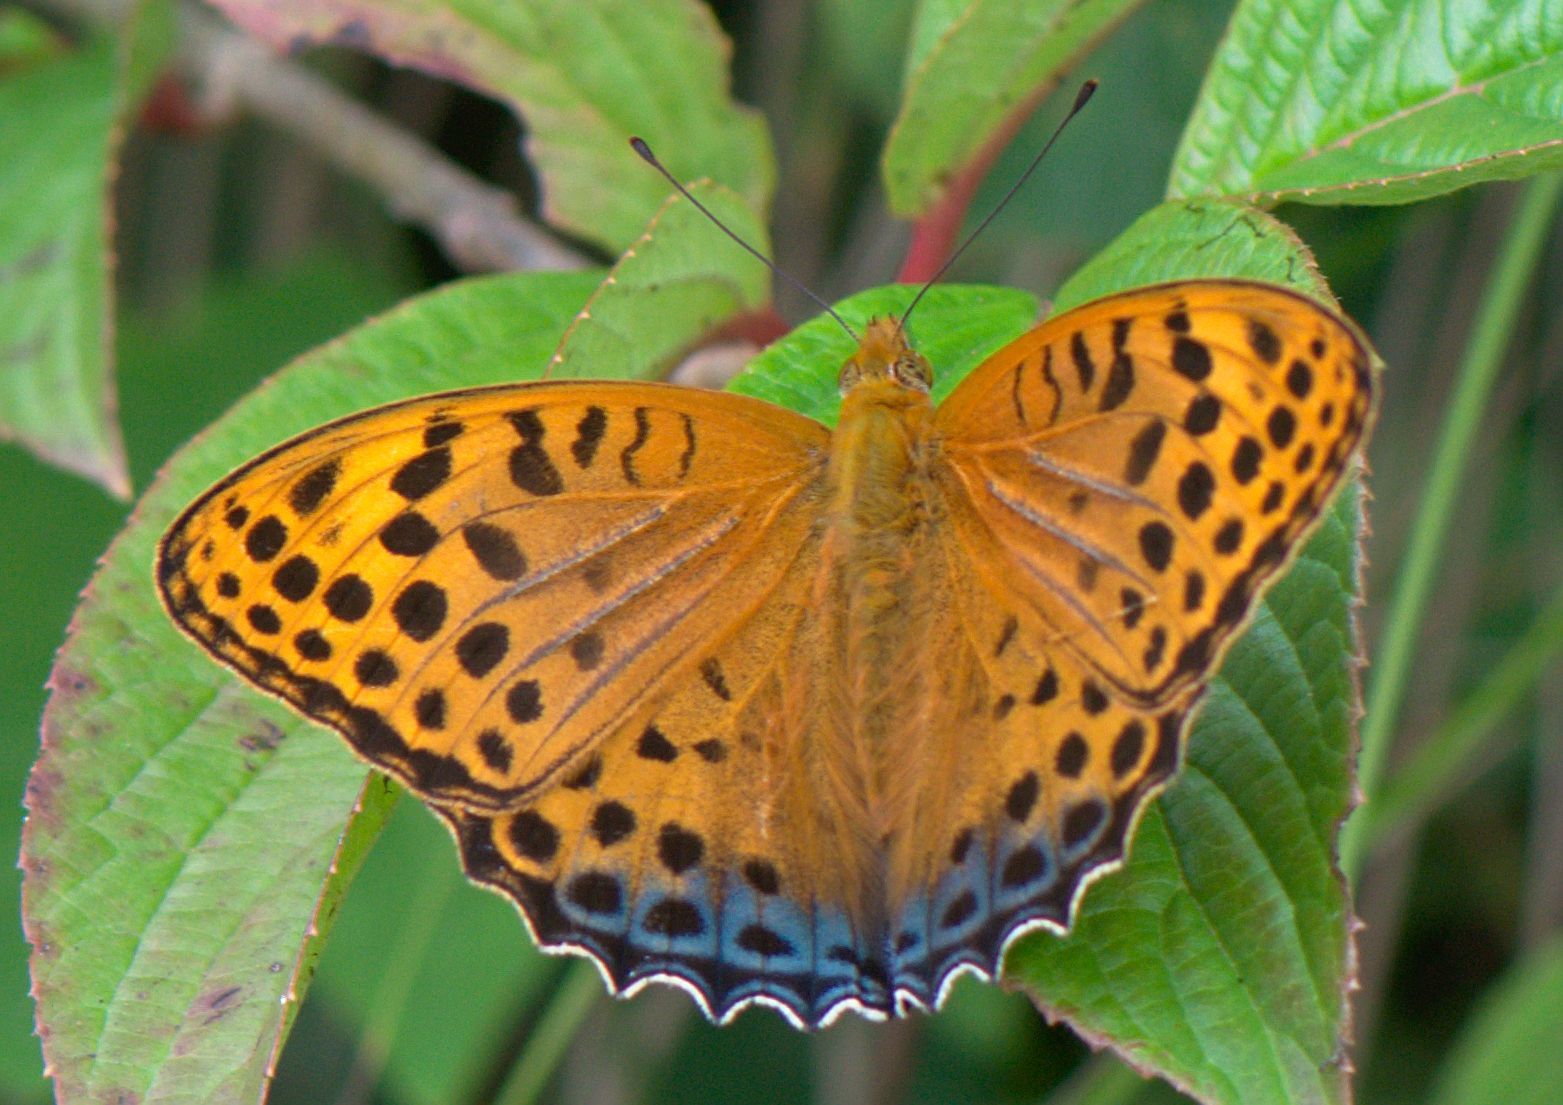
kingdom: Animalia
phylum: Arthropoda
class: Insecta
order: Lepidoptera
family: Nymphalidae
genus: Childrena
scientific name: Childrena childreni
